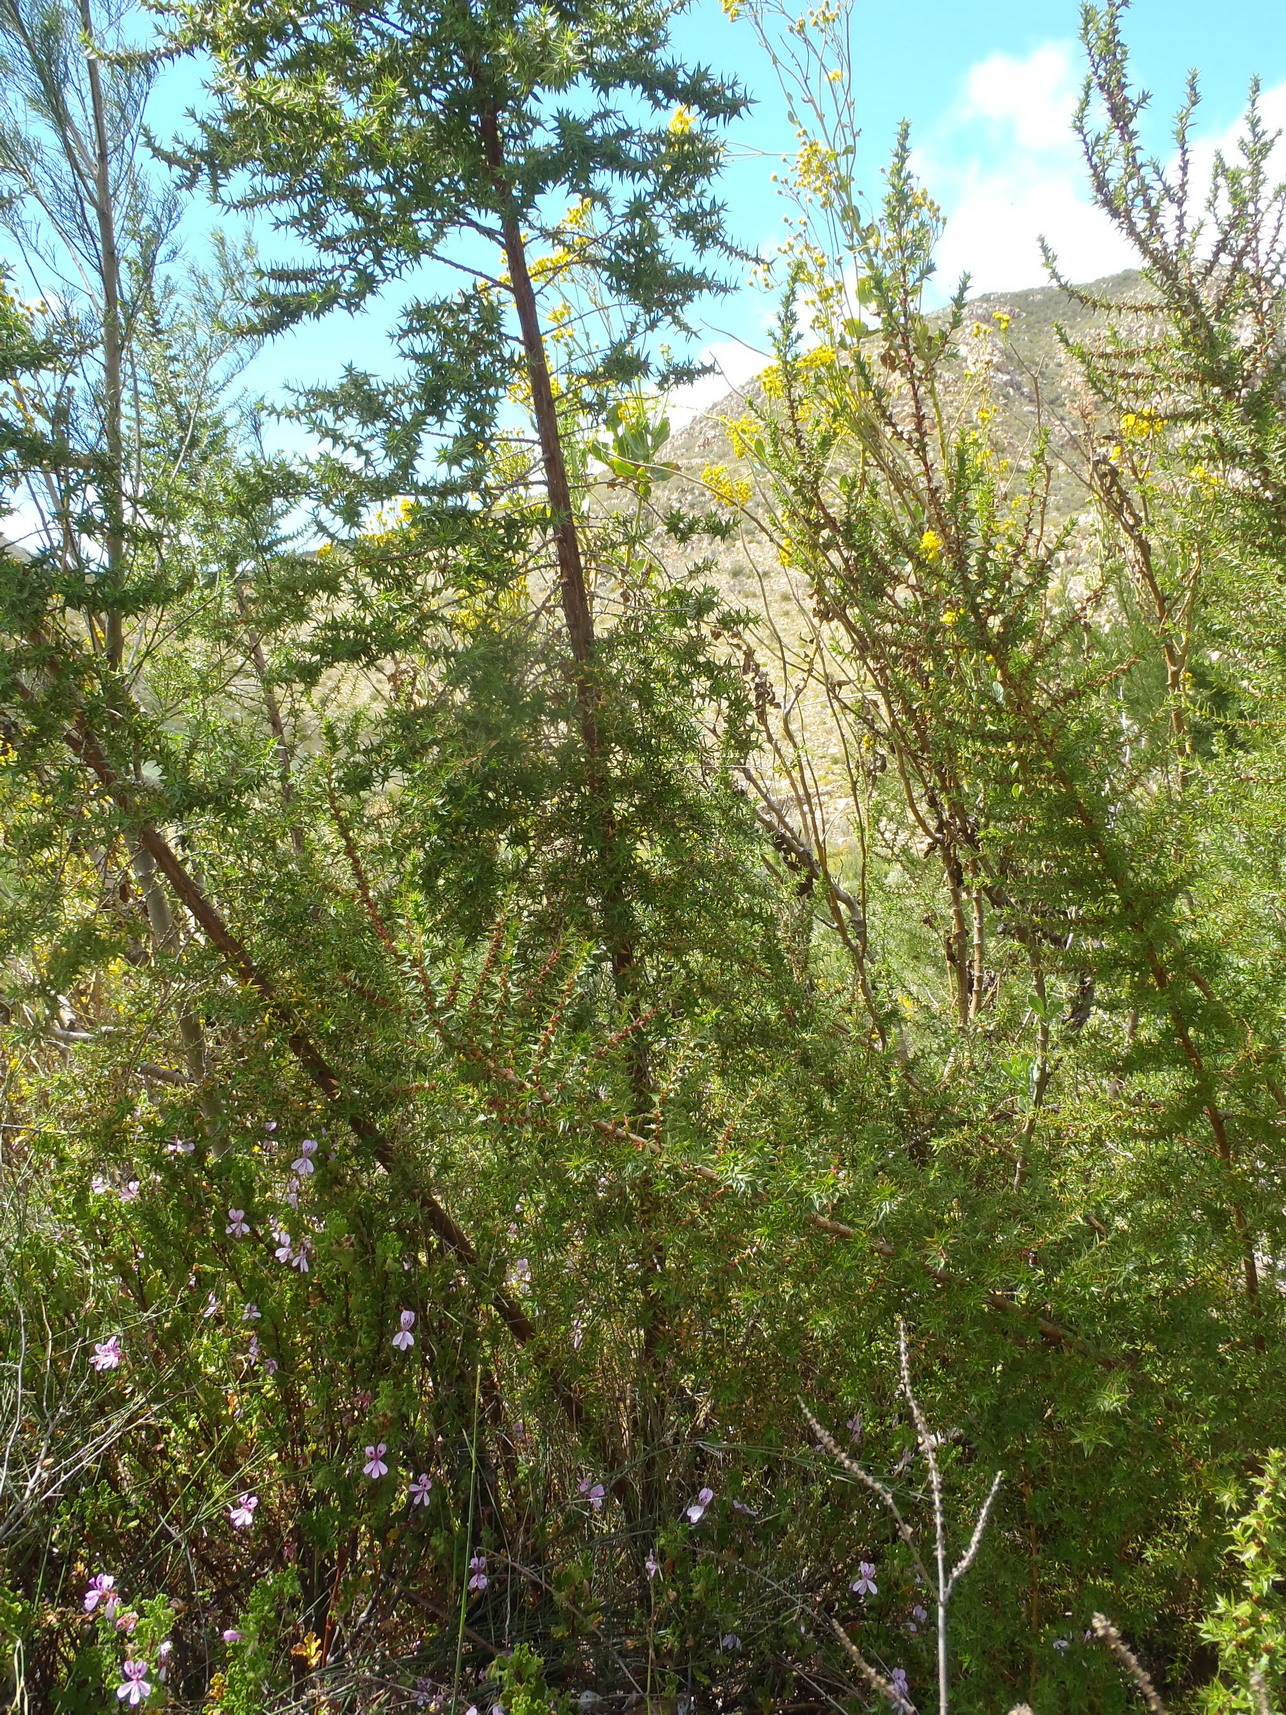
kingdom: Plantae
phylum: Tracheophyta
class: Magnoliopsida
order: Rosales
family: Rosaceae
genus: Cliffortia
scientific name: Cliffortia ilicifolia
